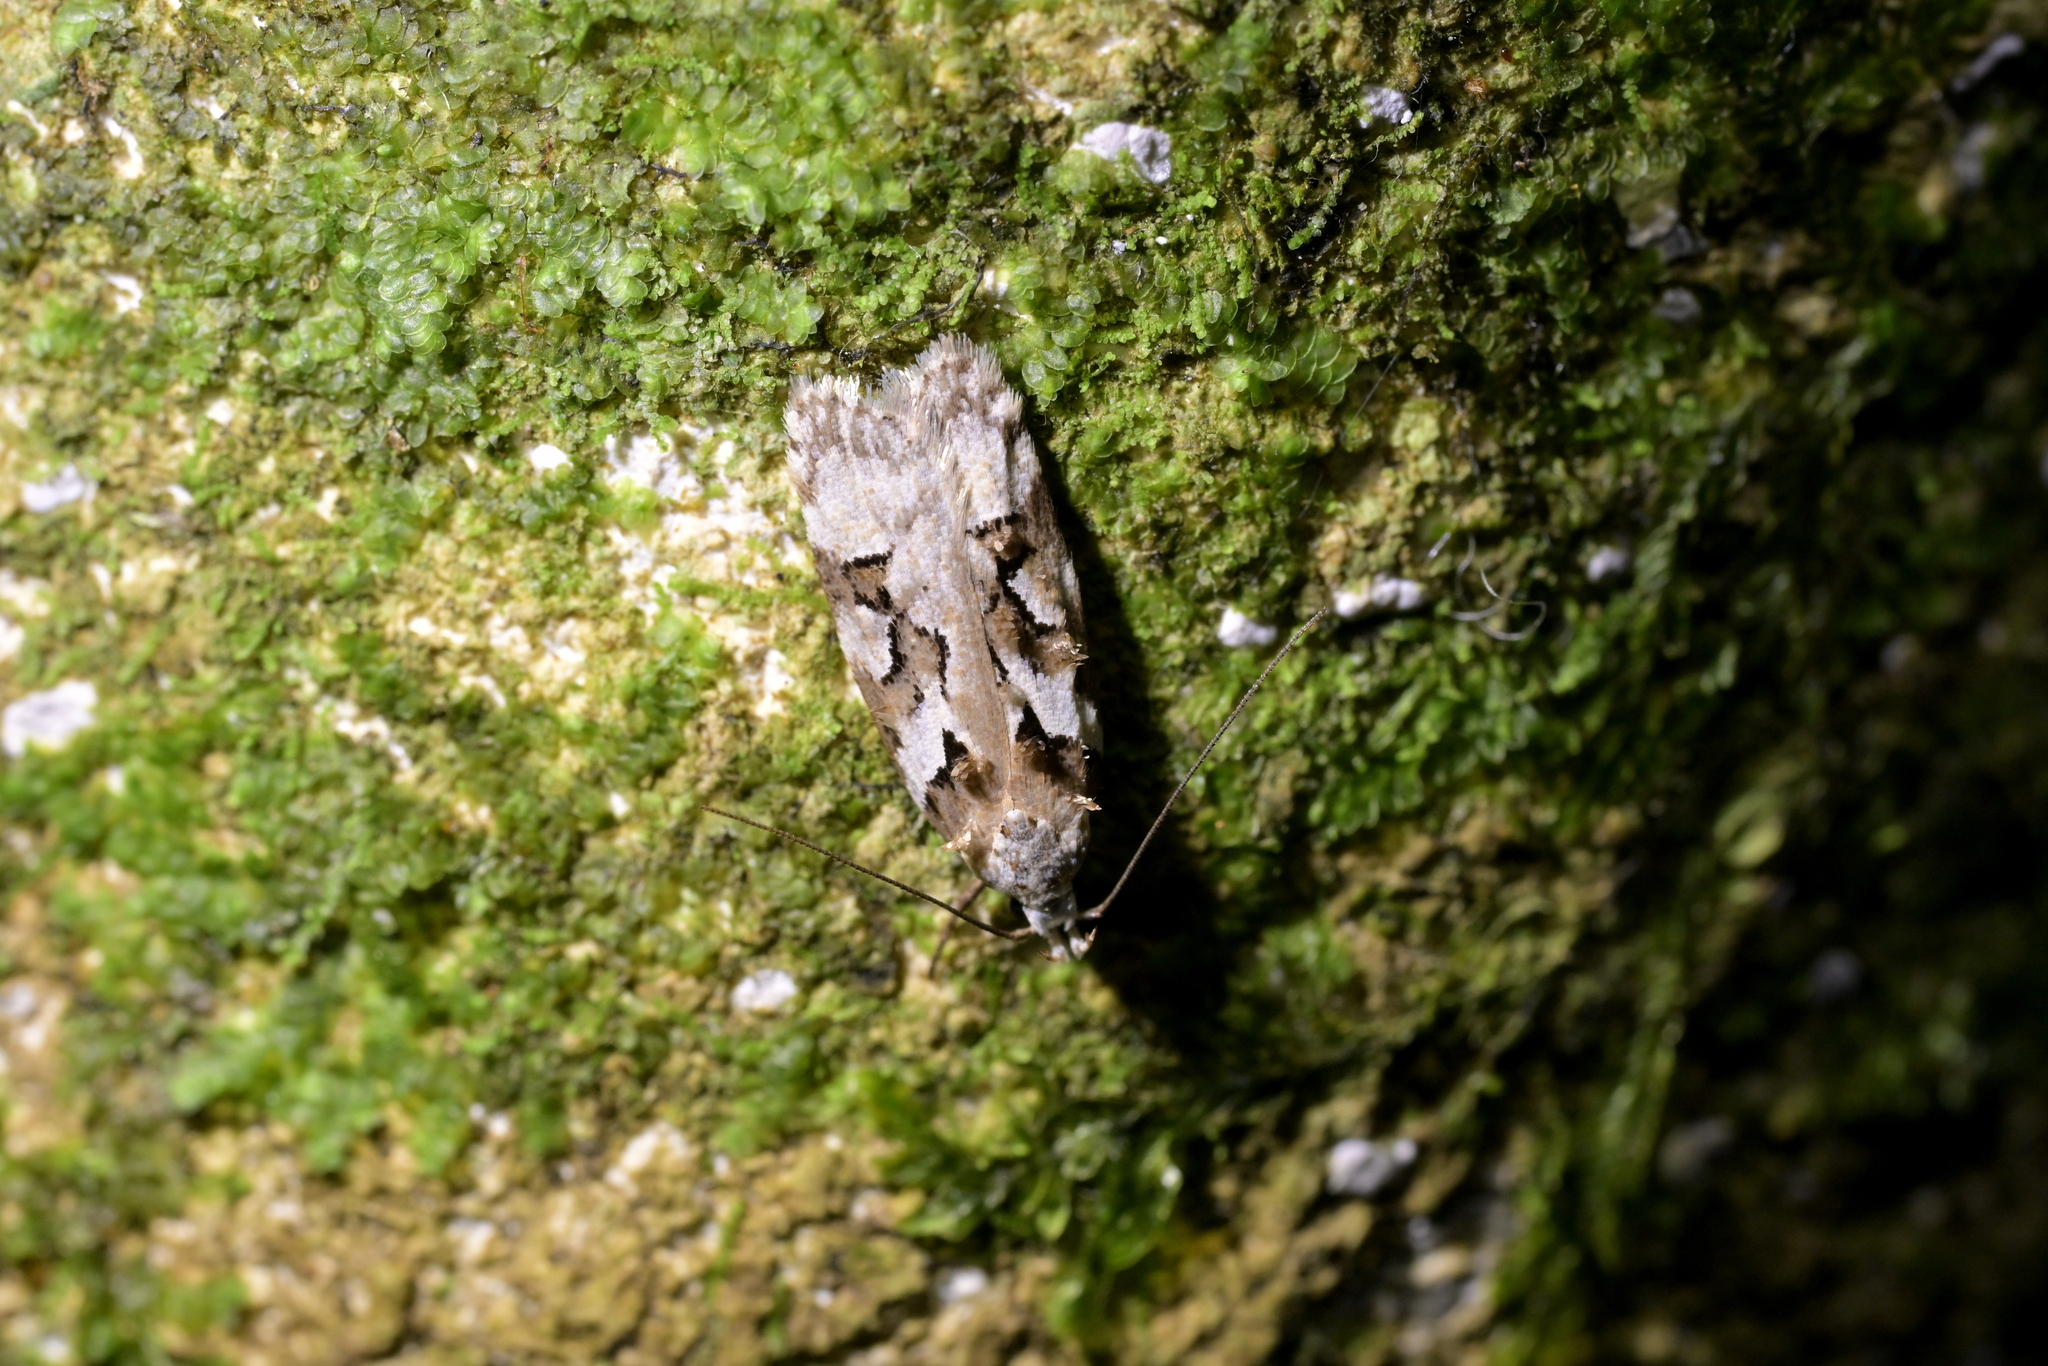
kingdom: Animalia
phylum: Arthropoda
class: Insecta
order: Lepidoptera
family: Oecophoridae
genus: Izatha
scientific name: Izatha epiphanes
